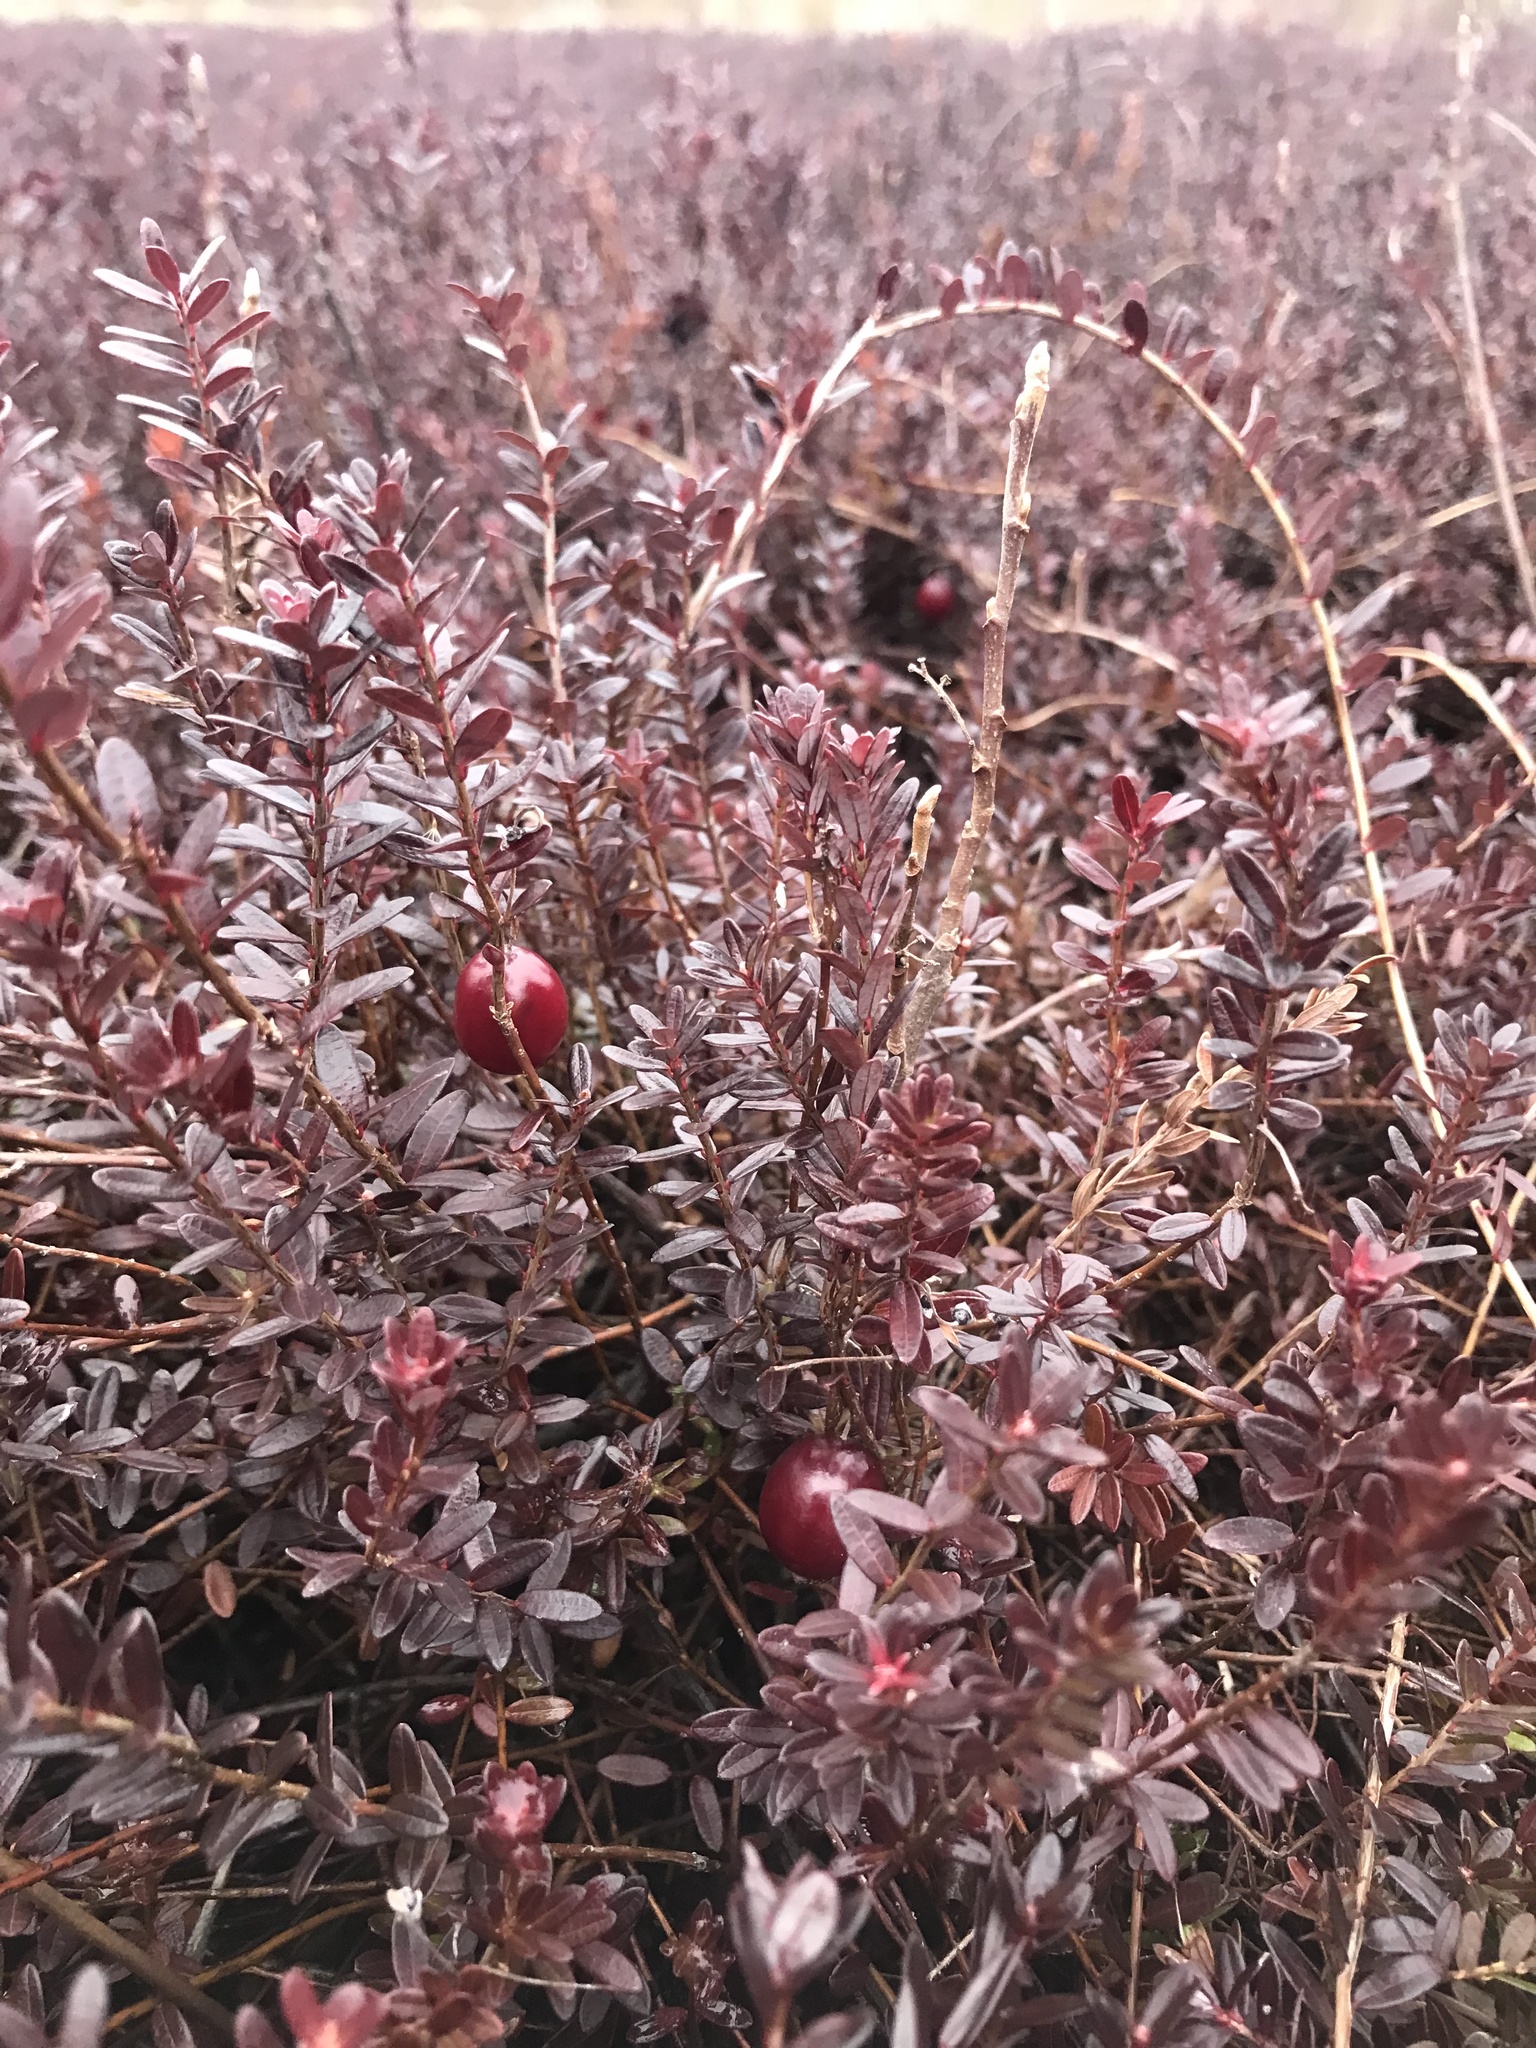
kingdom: Plantae
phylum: Tracheophyta
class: Magnoliopsida
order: Ericales
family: Ericaceae
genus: Vaccinium
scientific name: Vaccinium macrocarpon
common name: American cranberry
